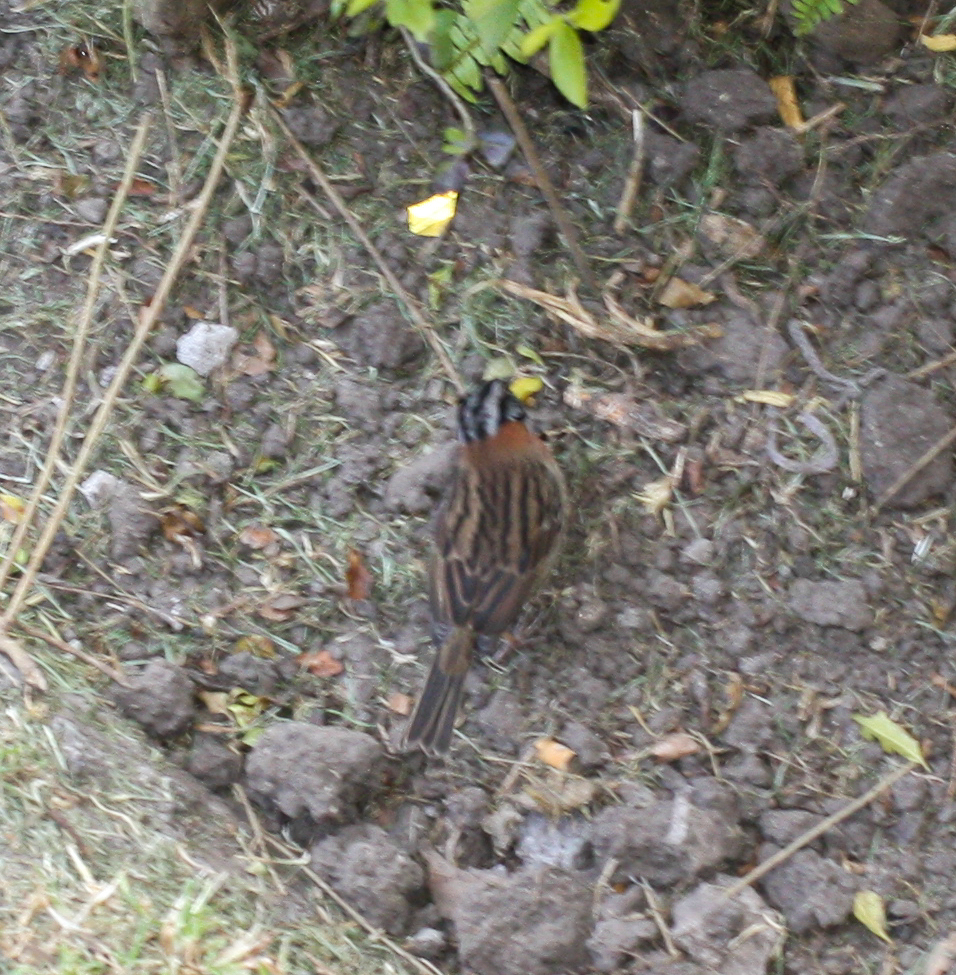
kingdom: Animalia
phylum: Chordata
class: Aves
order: Passeriformes
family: Passerellidae
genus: Zonotrichia
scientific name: Zonotrichia capensis
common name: Rufous-collared sparrow
